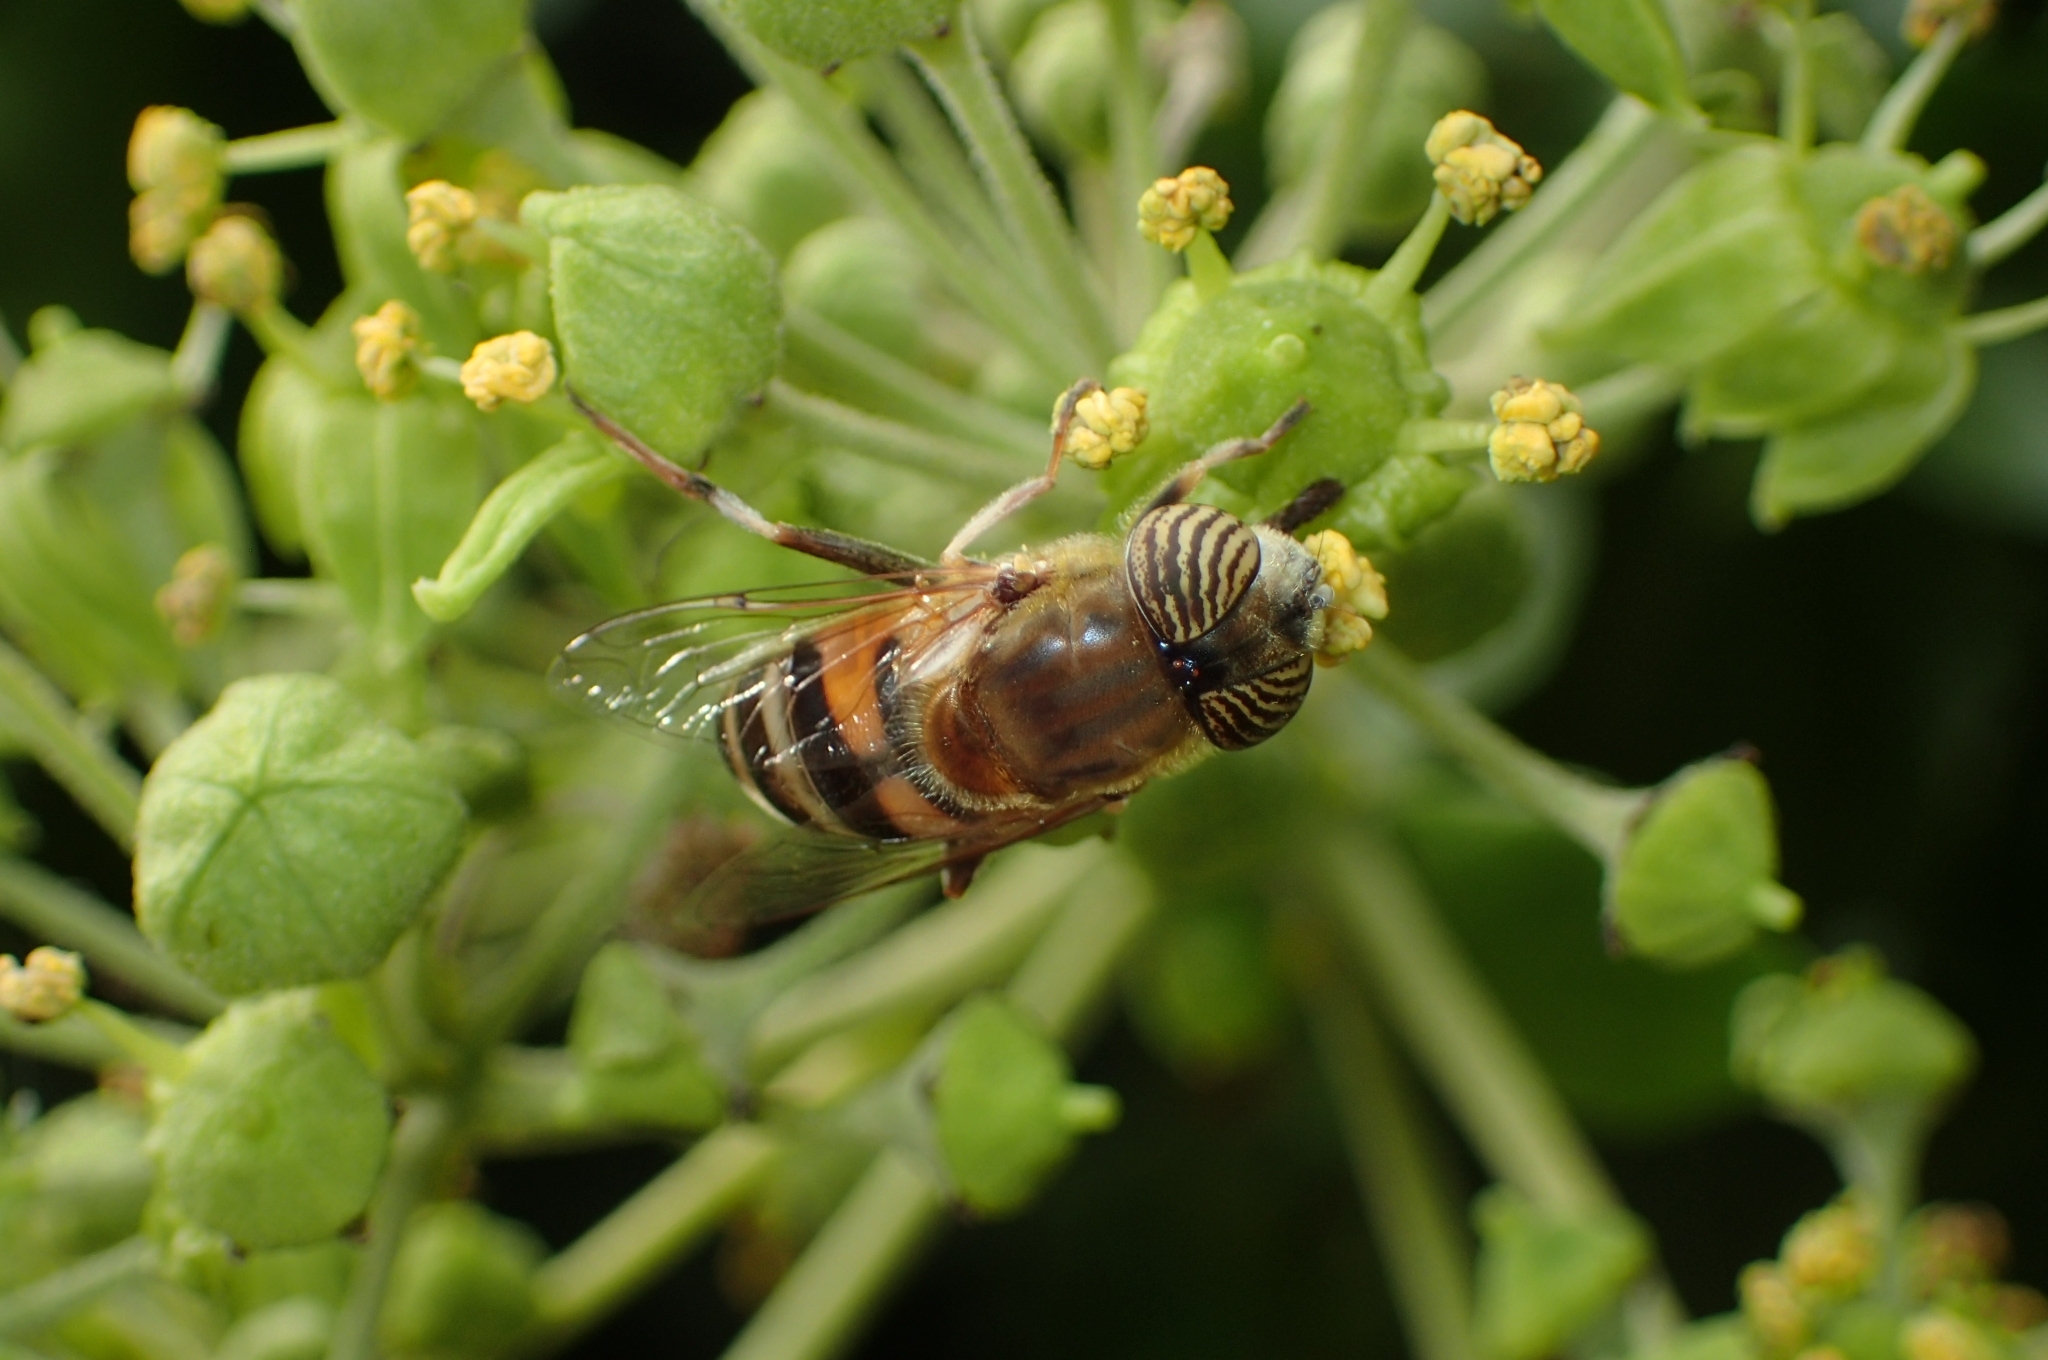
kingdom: Animalia
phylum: Arthropoda
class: Insecta
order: Diptera
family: Syrphidae
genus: Eristalinus
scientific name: Eristalinus taeniops
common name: Syrphid fly
